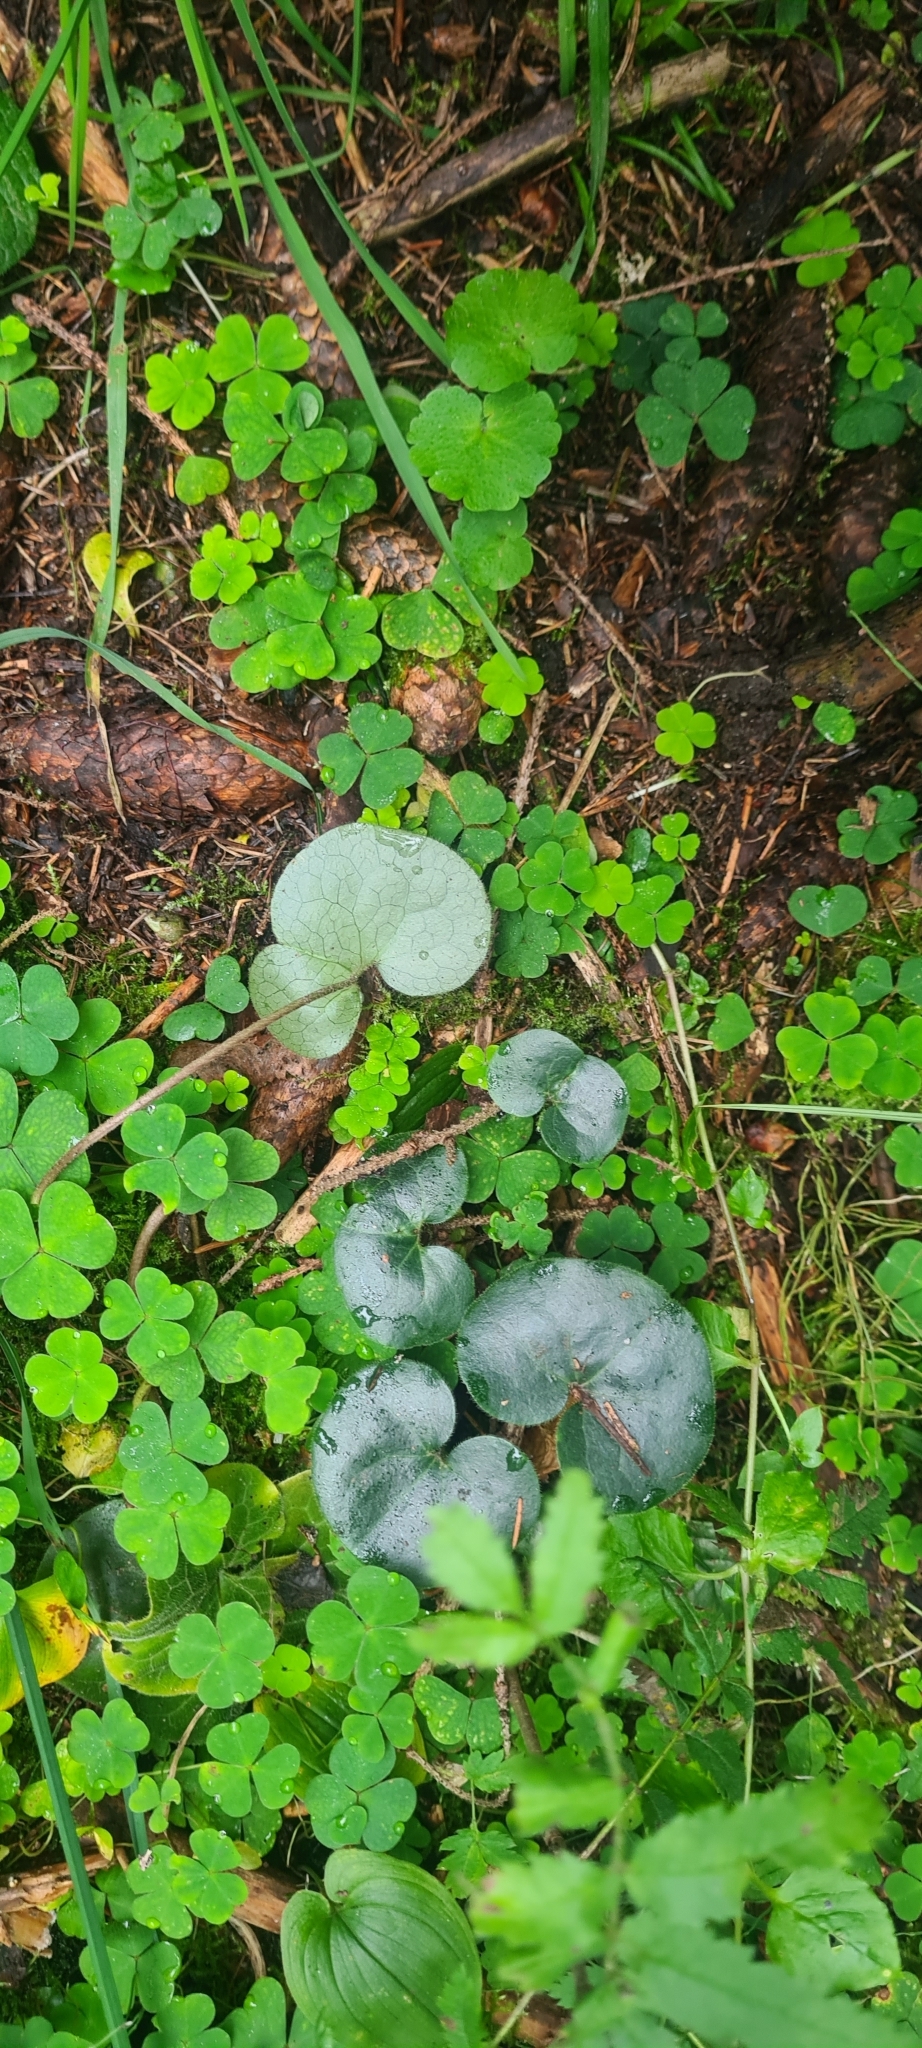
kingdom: Plantae
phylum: Tracheophyta
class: Magnoliopsida
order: Piperales
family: Aristolochiaceae
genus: Asarum
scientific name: Asarum europaeum
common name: Asarabacca
